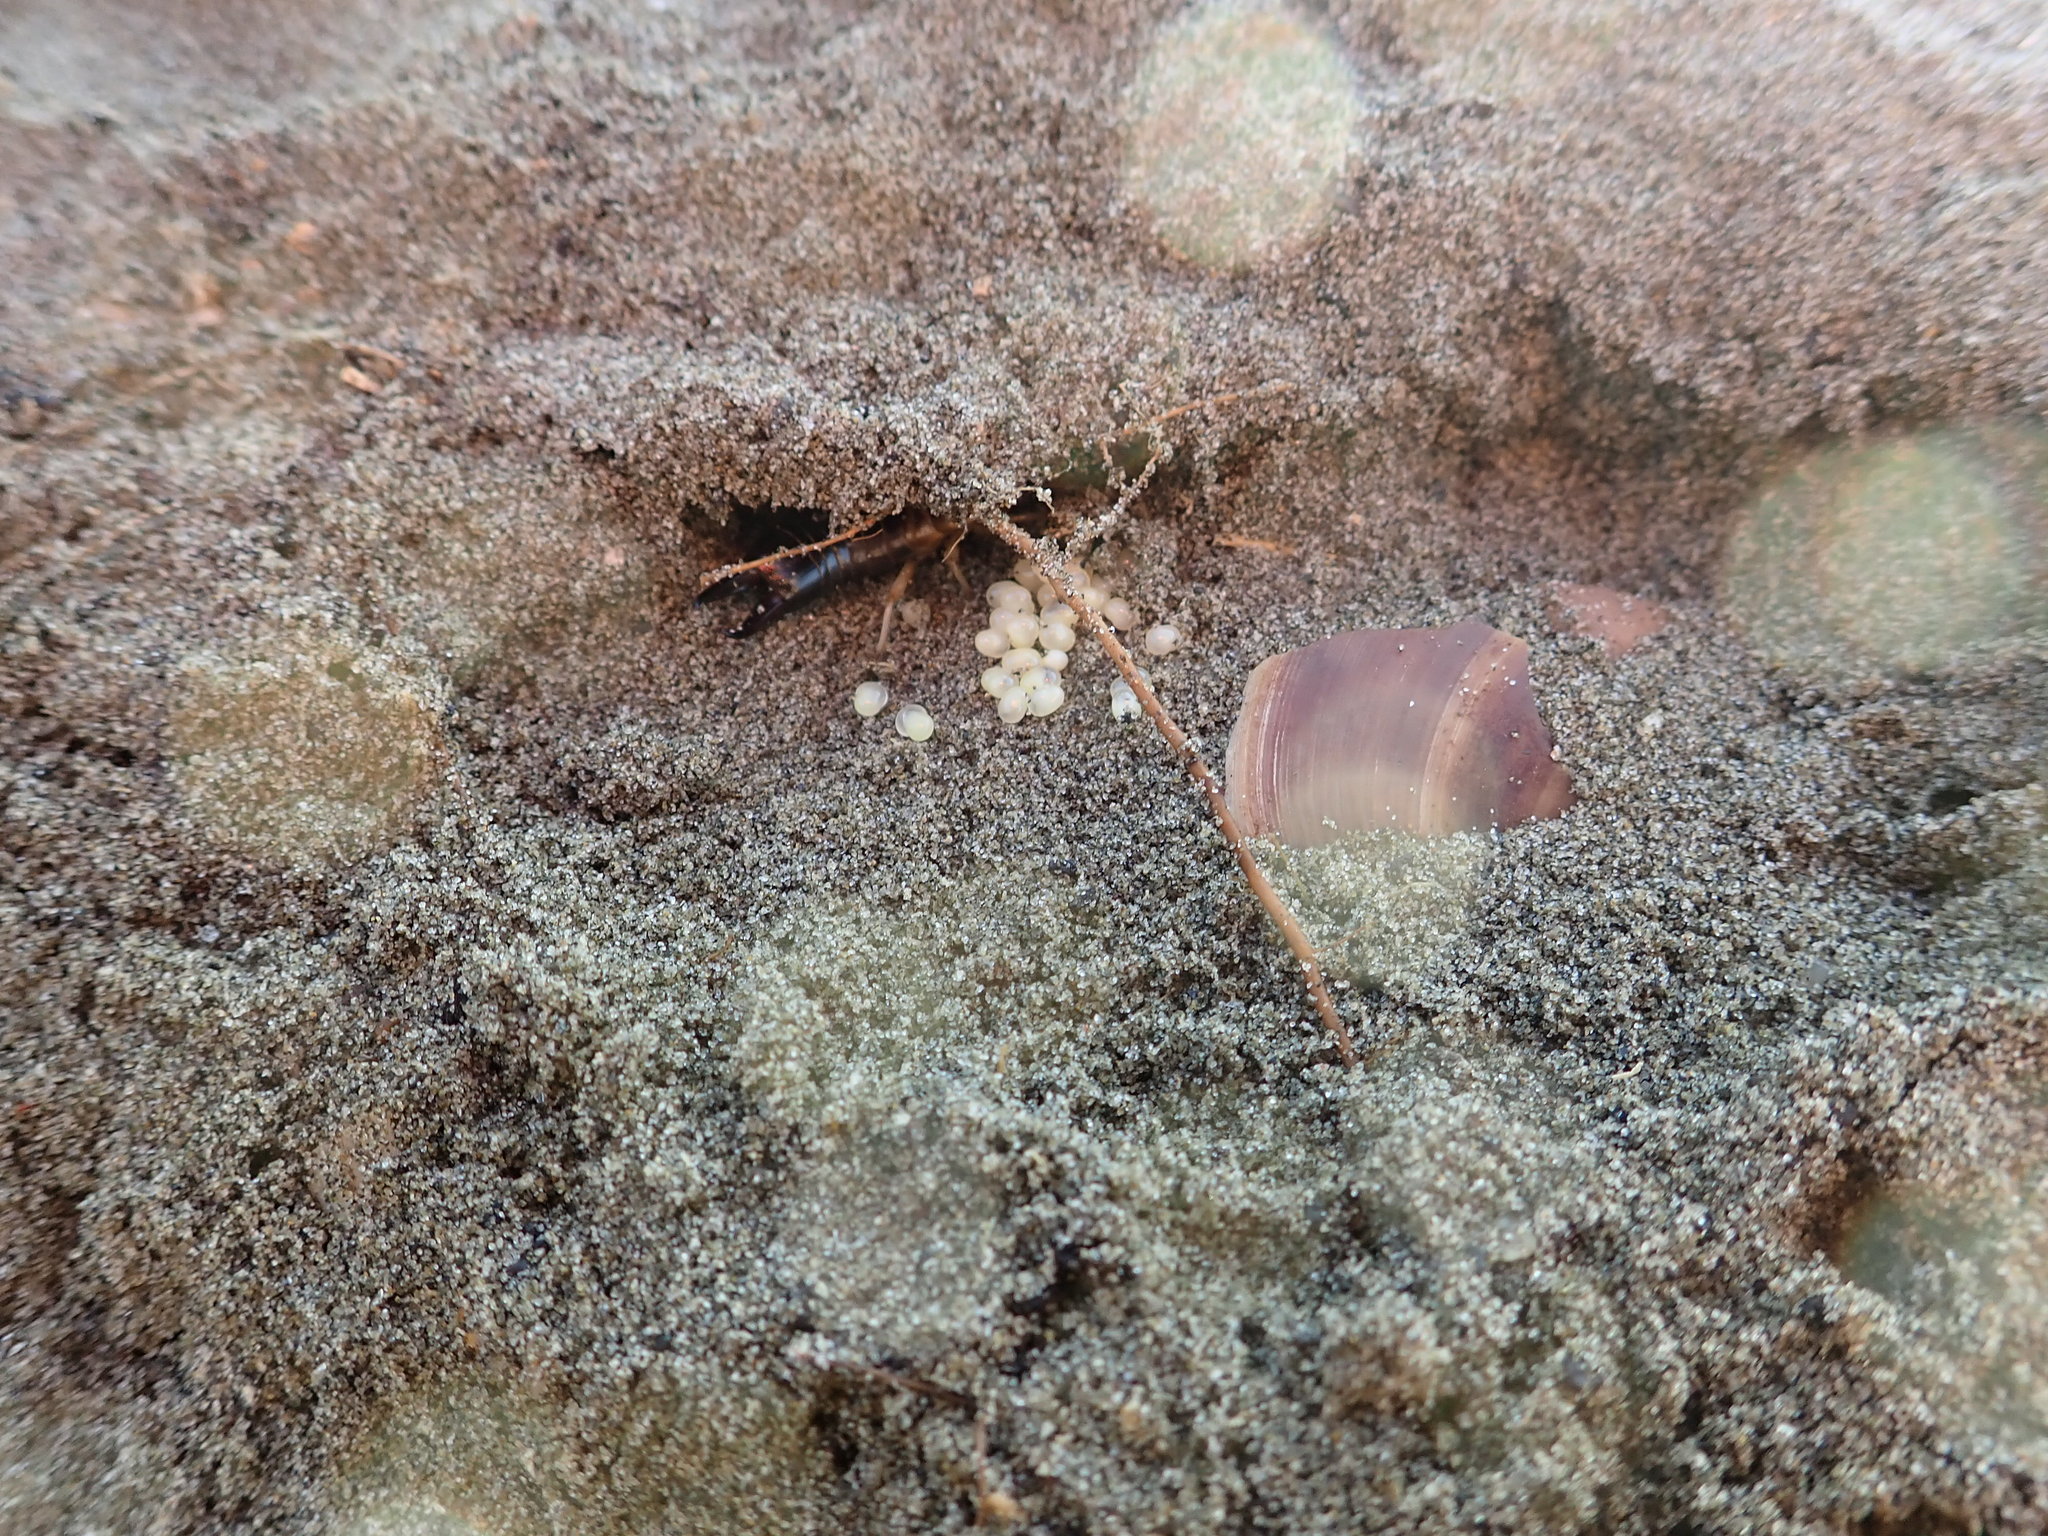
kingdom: Animalia
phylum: Arthropoda
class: Insecta
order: Dermaptera
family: Anisolabididae
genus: Anisolabis
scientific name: Anisolabis littorea
